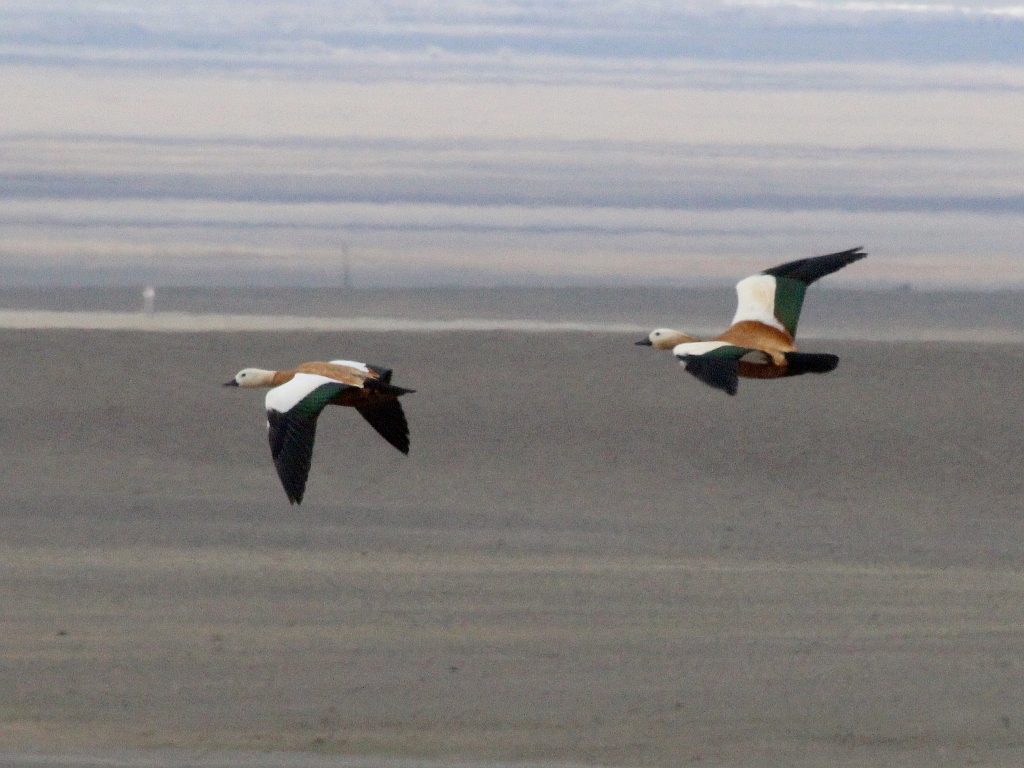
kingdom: Animalia
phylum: Chordata
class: Aves
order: Anseriformes
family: Anatidae
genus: Tadorna
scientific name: Tadorna ferruginea
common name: Ruddy shelduck
